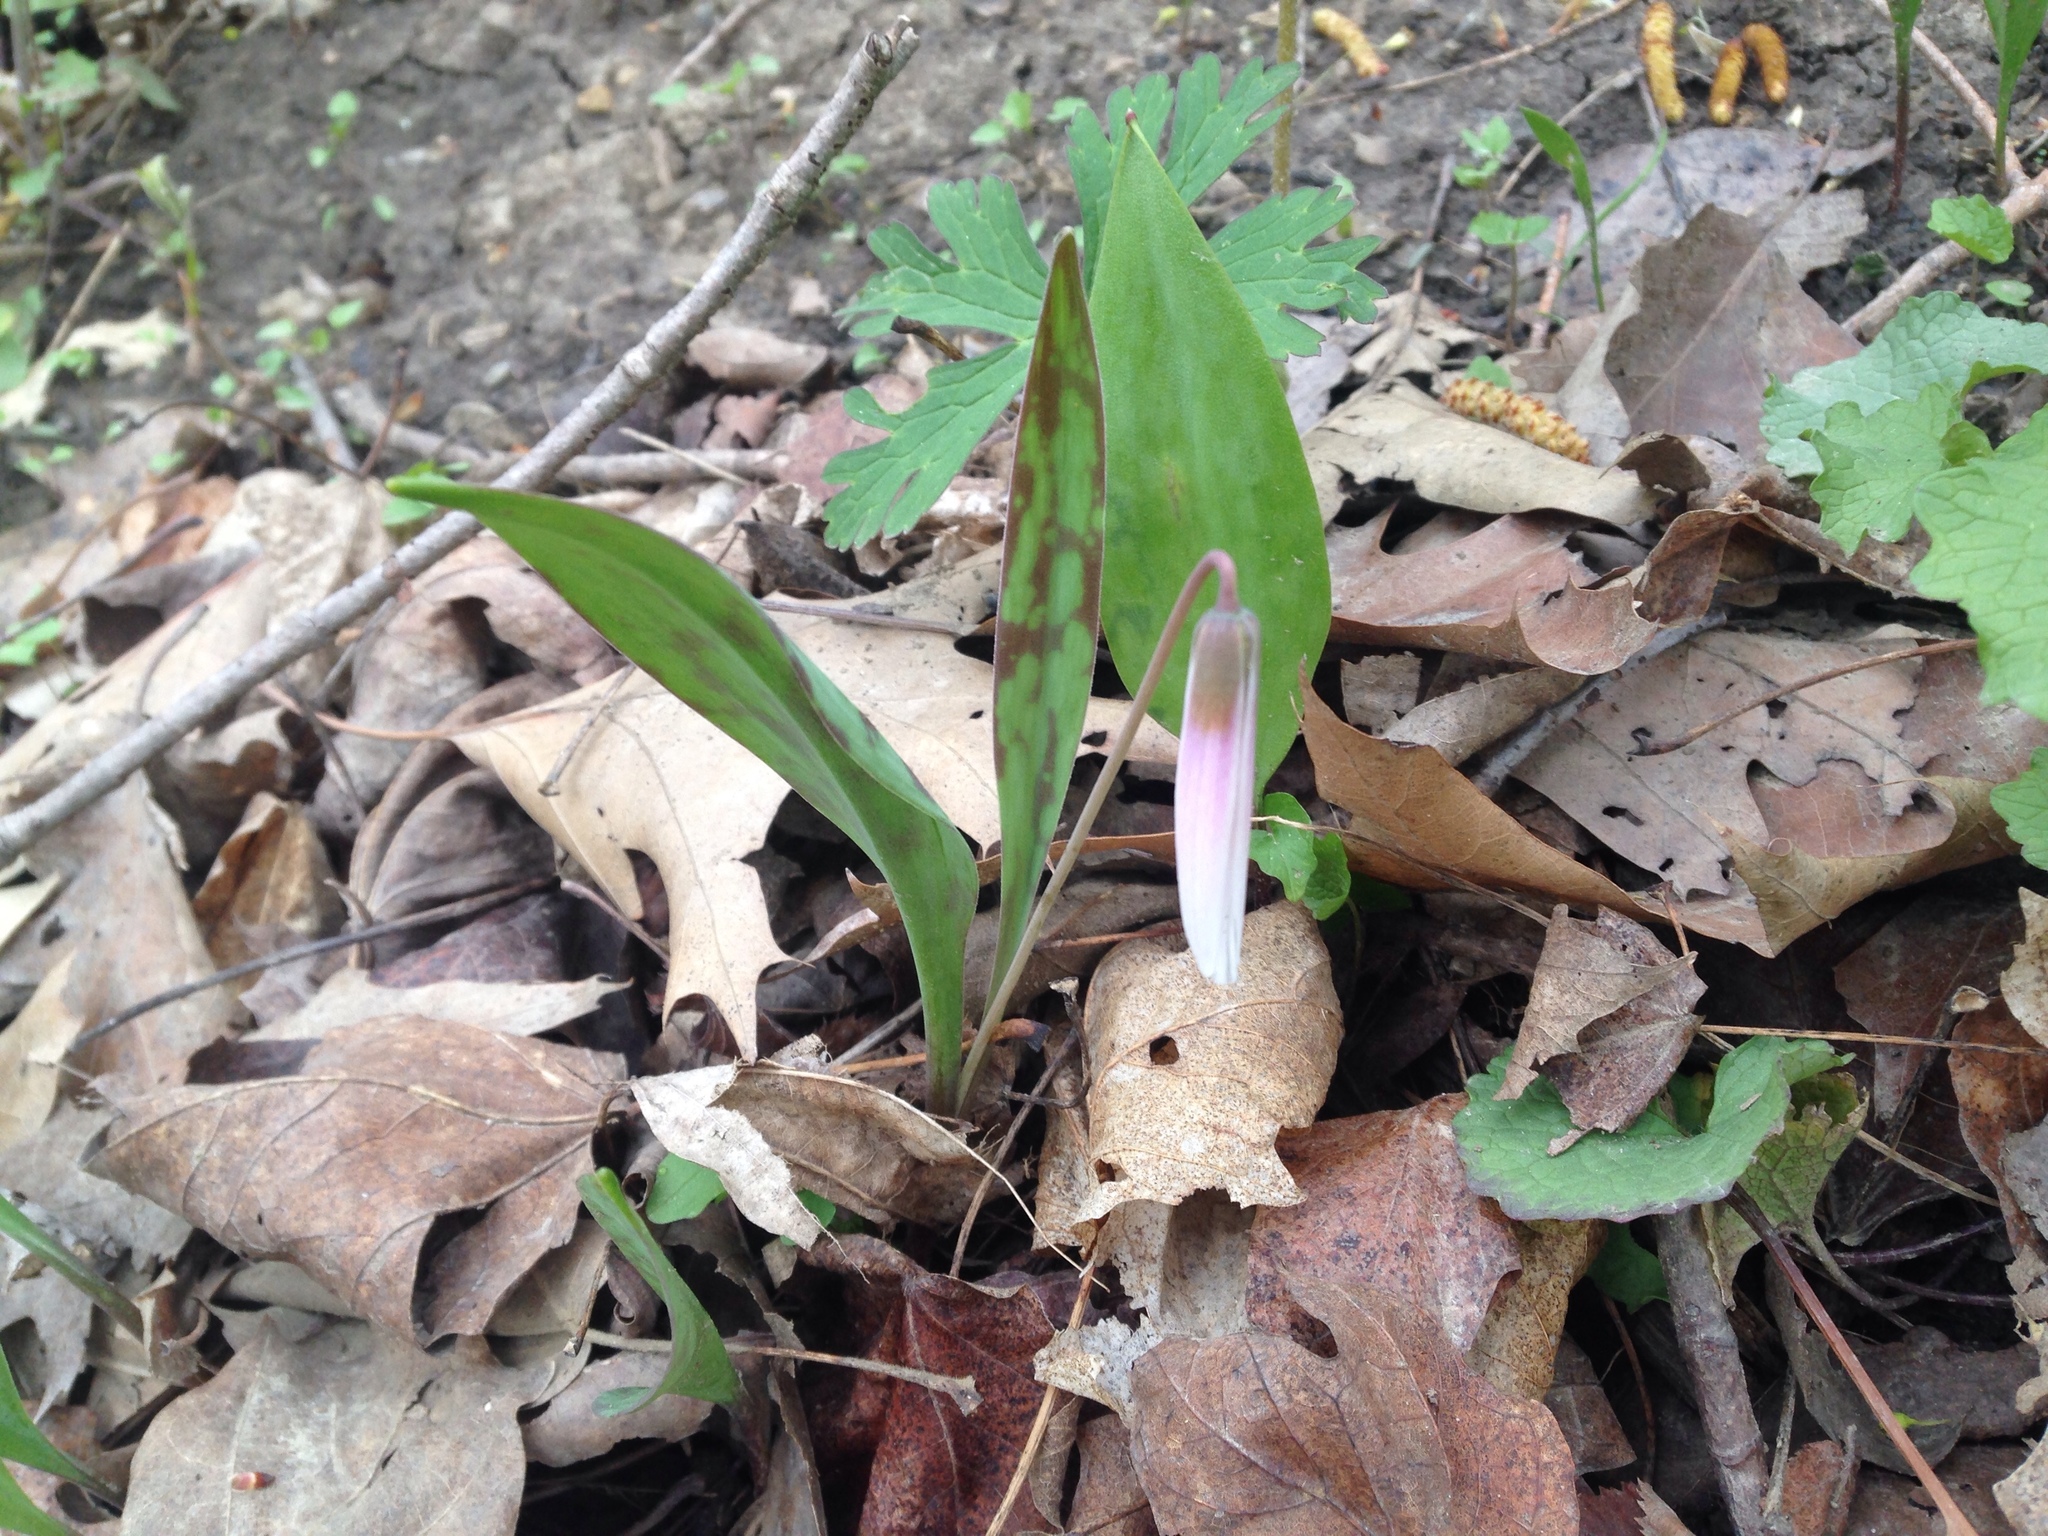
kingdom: Plantae
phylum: Tracheophyta
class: Liliopsida
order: Liliales
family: Liliaceae
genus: Erythronium
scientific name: Erythronium albidum
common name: White trout-lily
